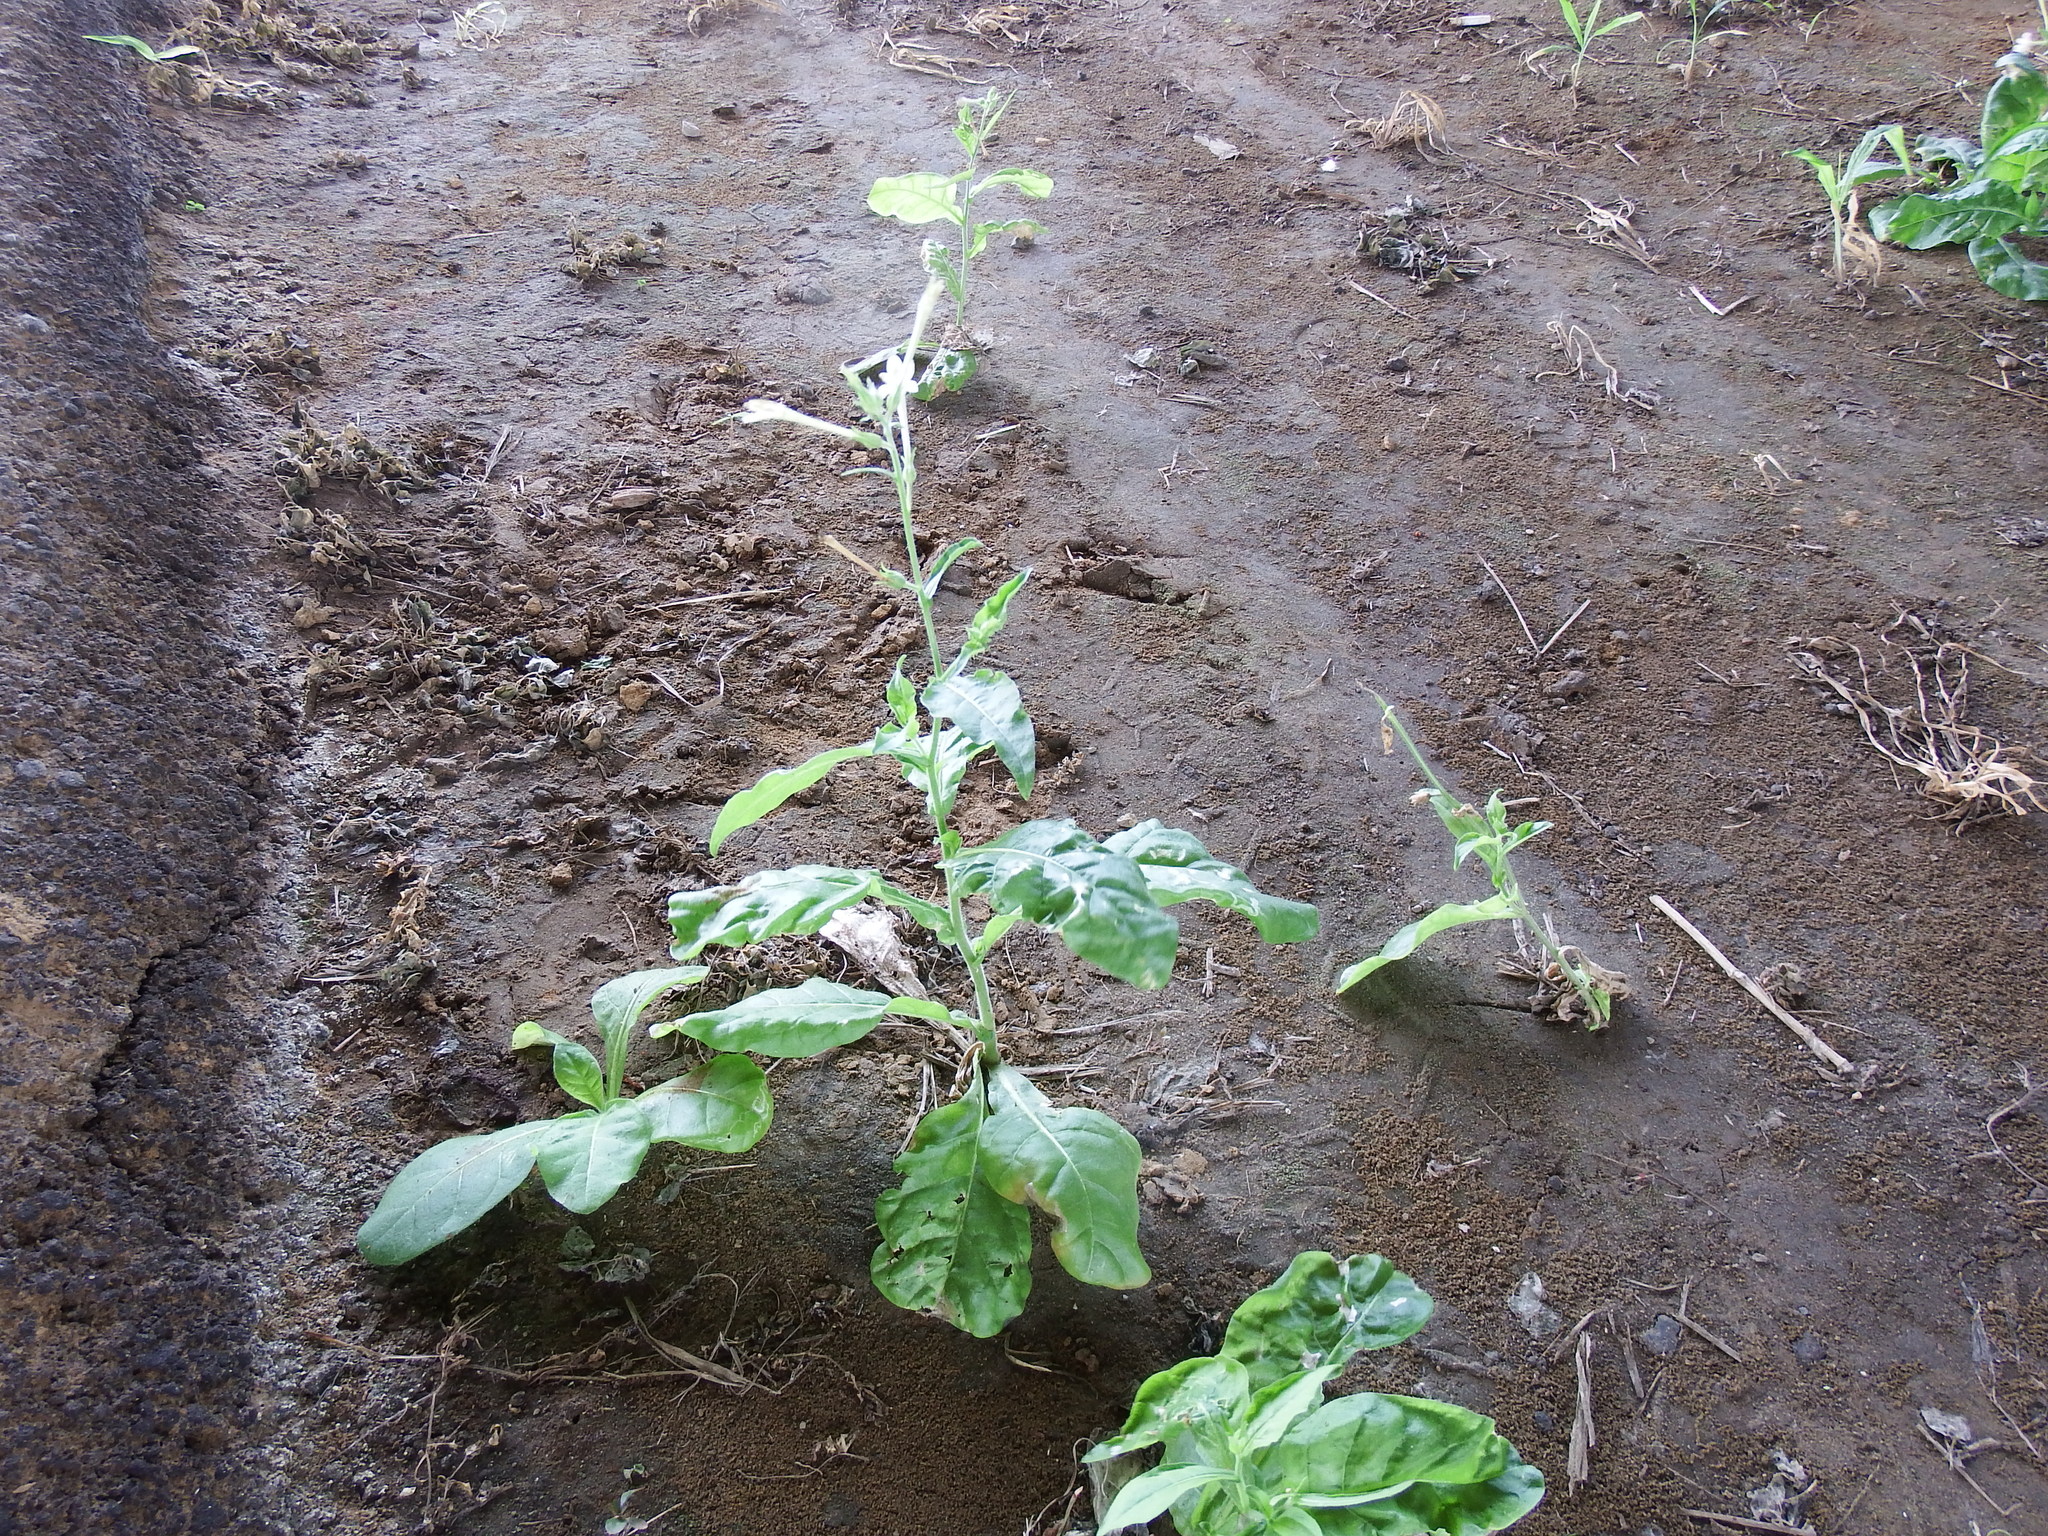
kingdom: Plantae
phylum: Tracheophyta
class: Magnoliopsida
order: Solanales
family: Solanaceae
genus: Nicotiana
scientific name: Nicotiana plumbaginifolia
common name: Tex-mex tobacco
